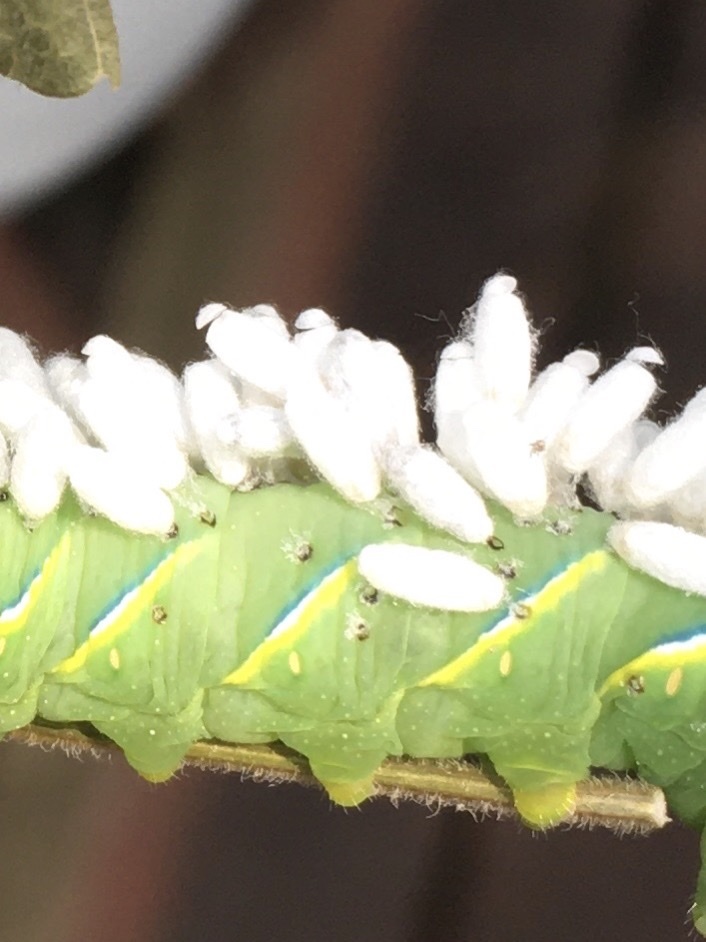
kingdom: Animalia
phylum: Arthropoda
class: Insecta
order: Hymenoptera
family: Braconidae
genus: Cotesia
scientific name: Cotesia congregata
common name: Hornworm parasitoid wasp
